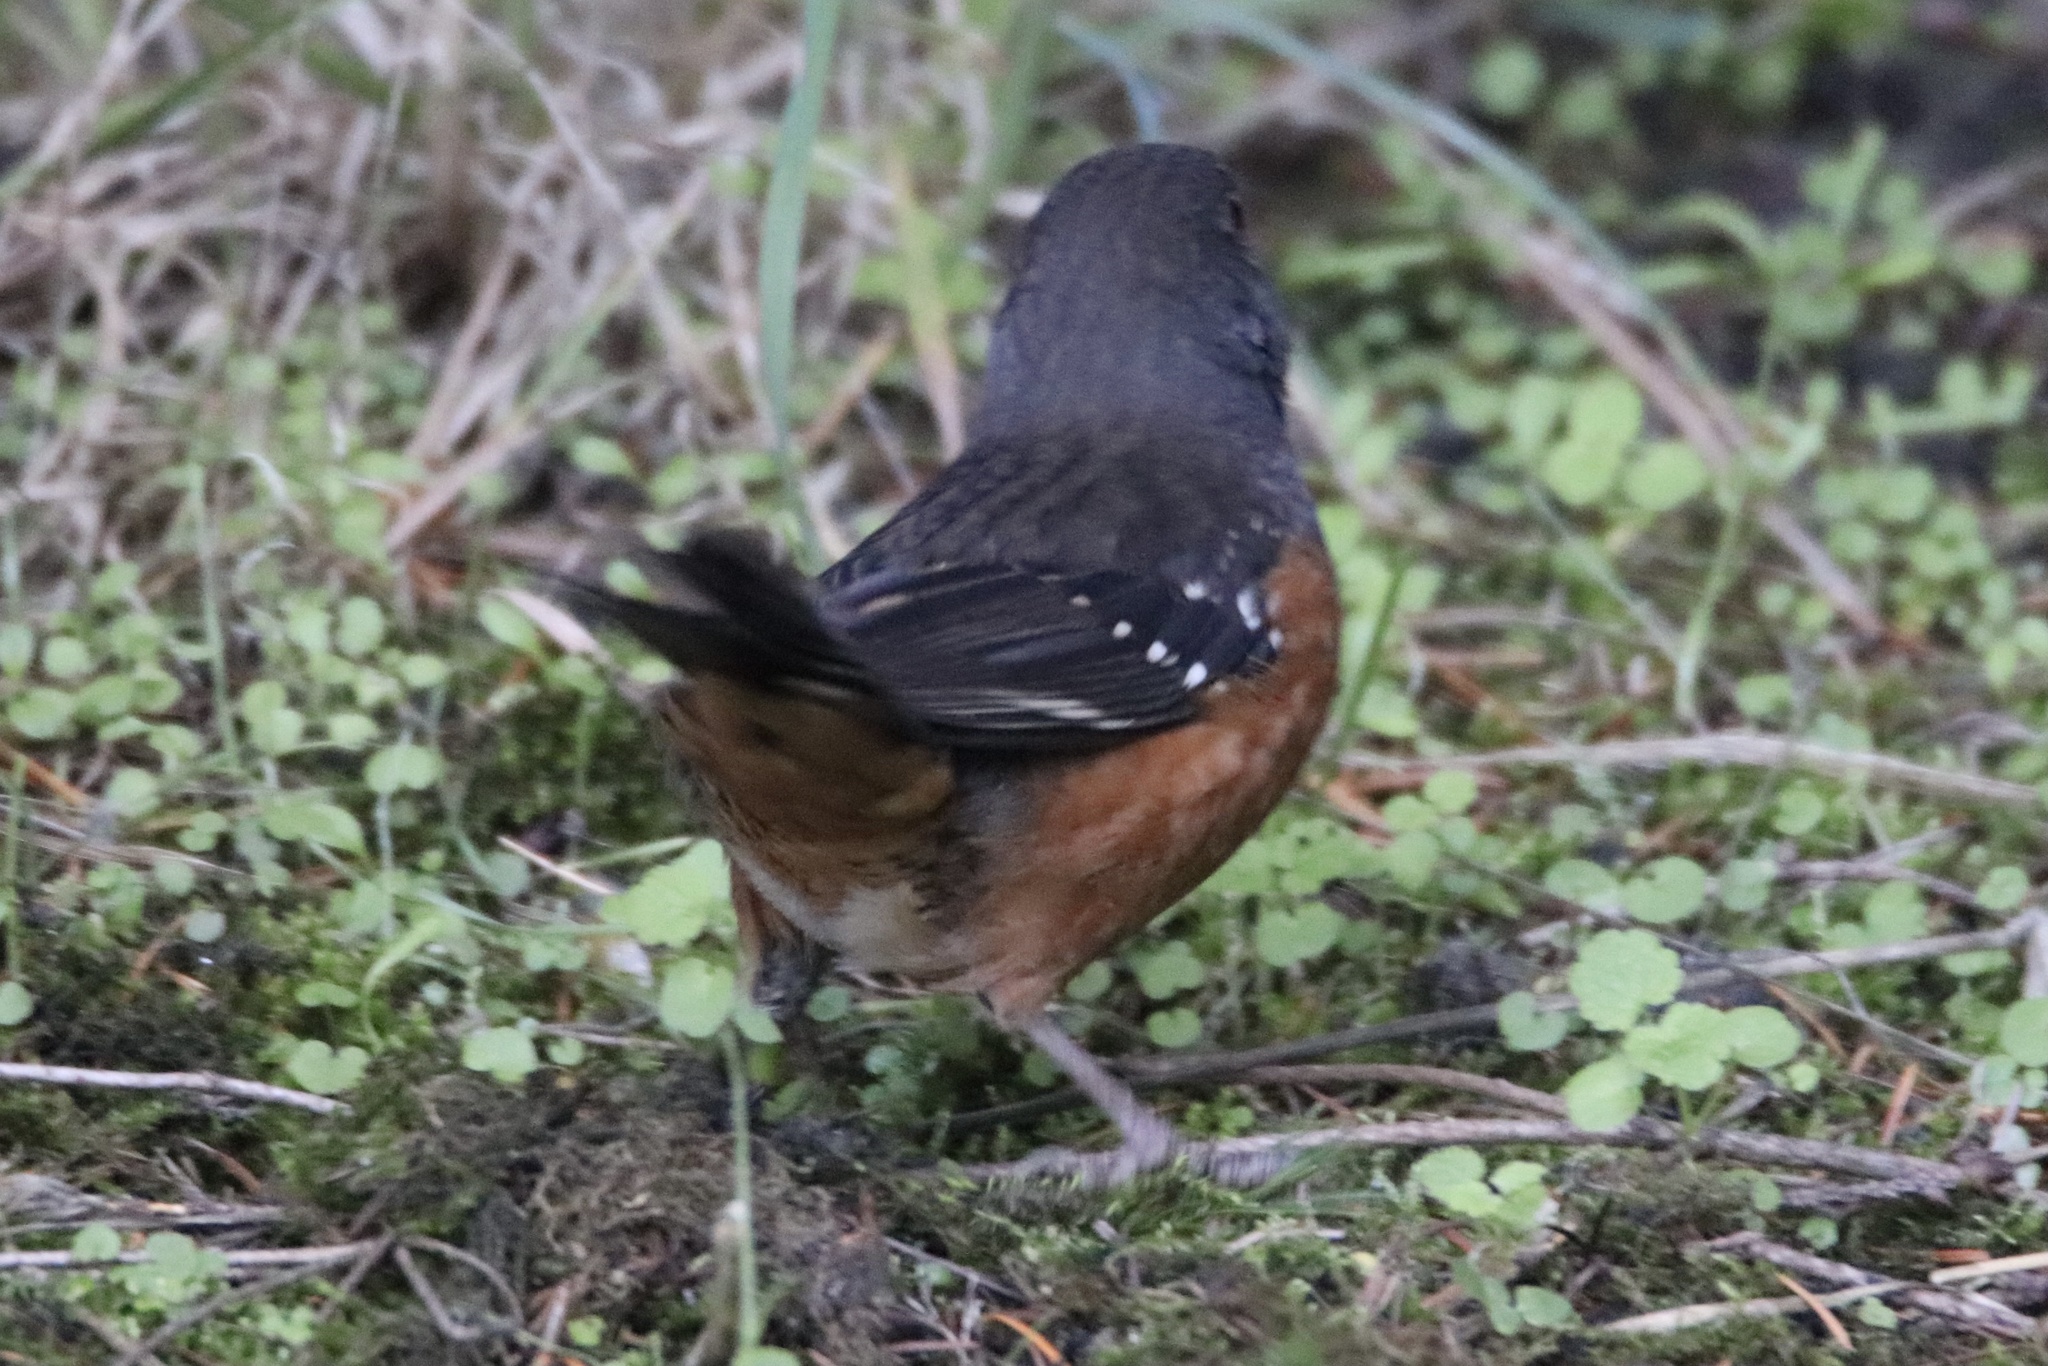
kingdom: Animalia
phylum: Chordata
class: Aves
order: Passeriformes
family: Passerellidae
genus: Pipilo
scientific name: Pipilo maculatus
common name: Spotted towhee
